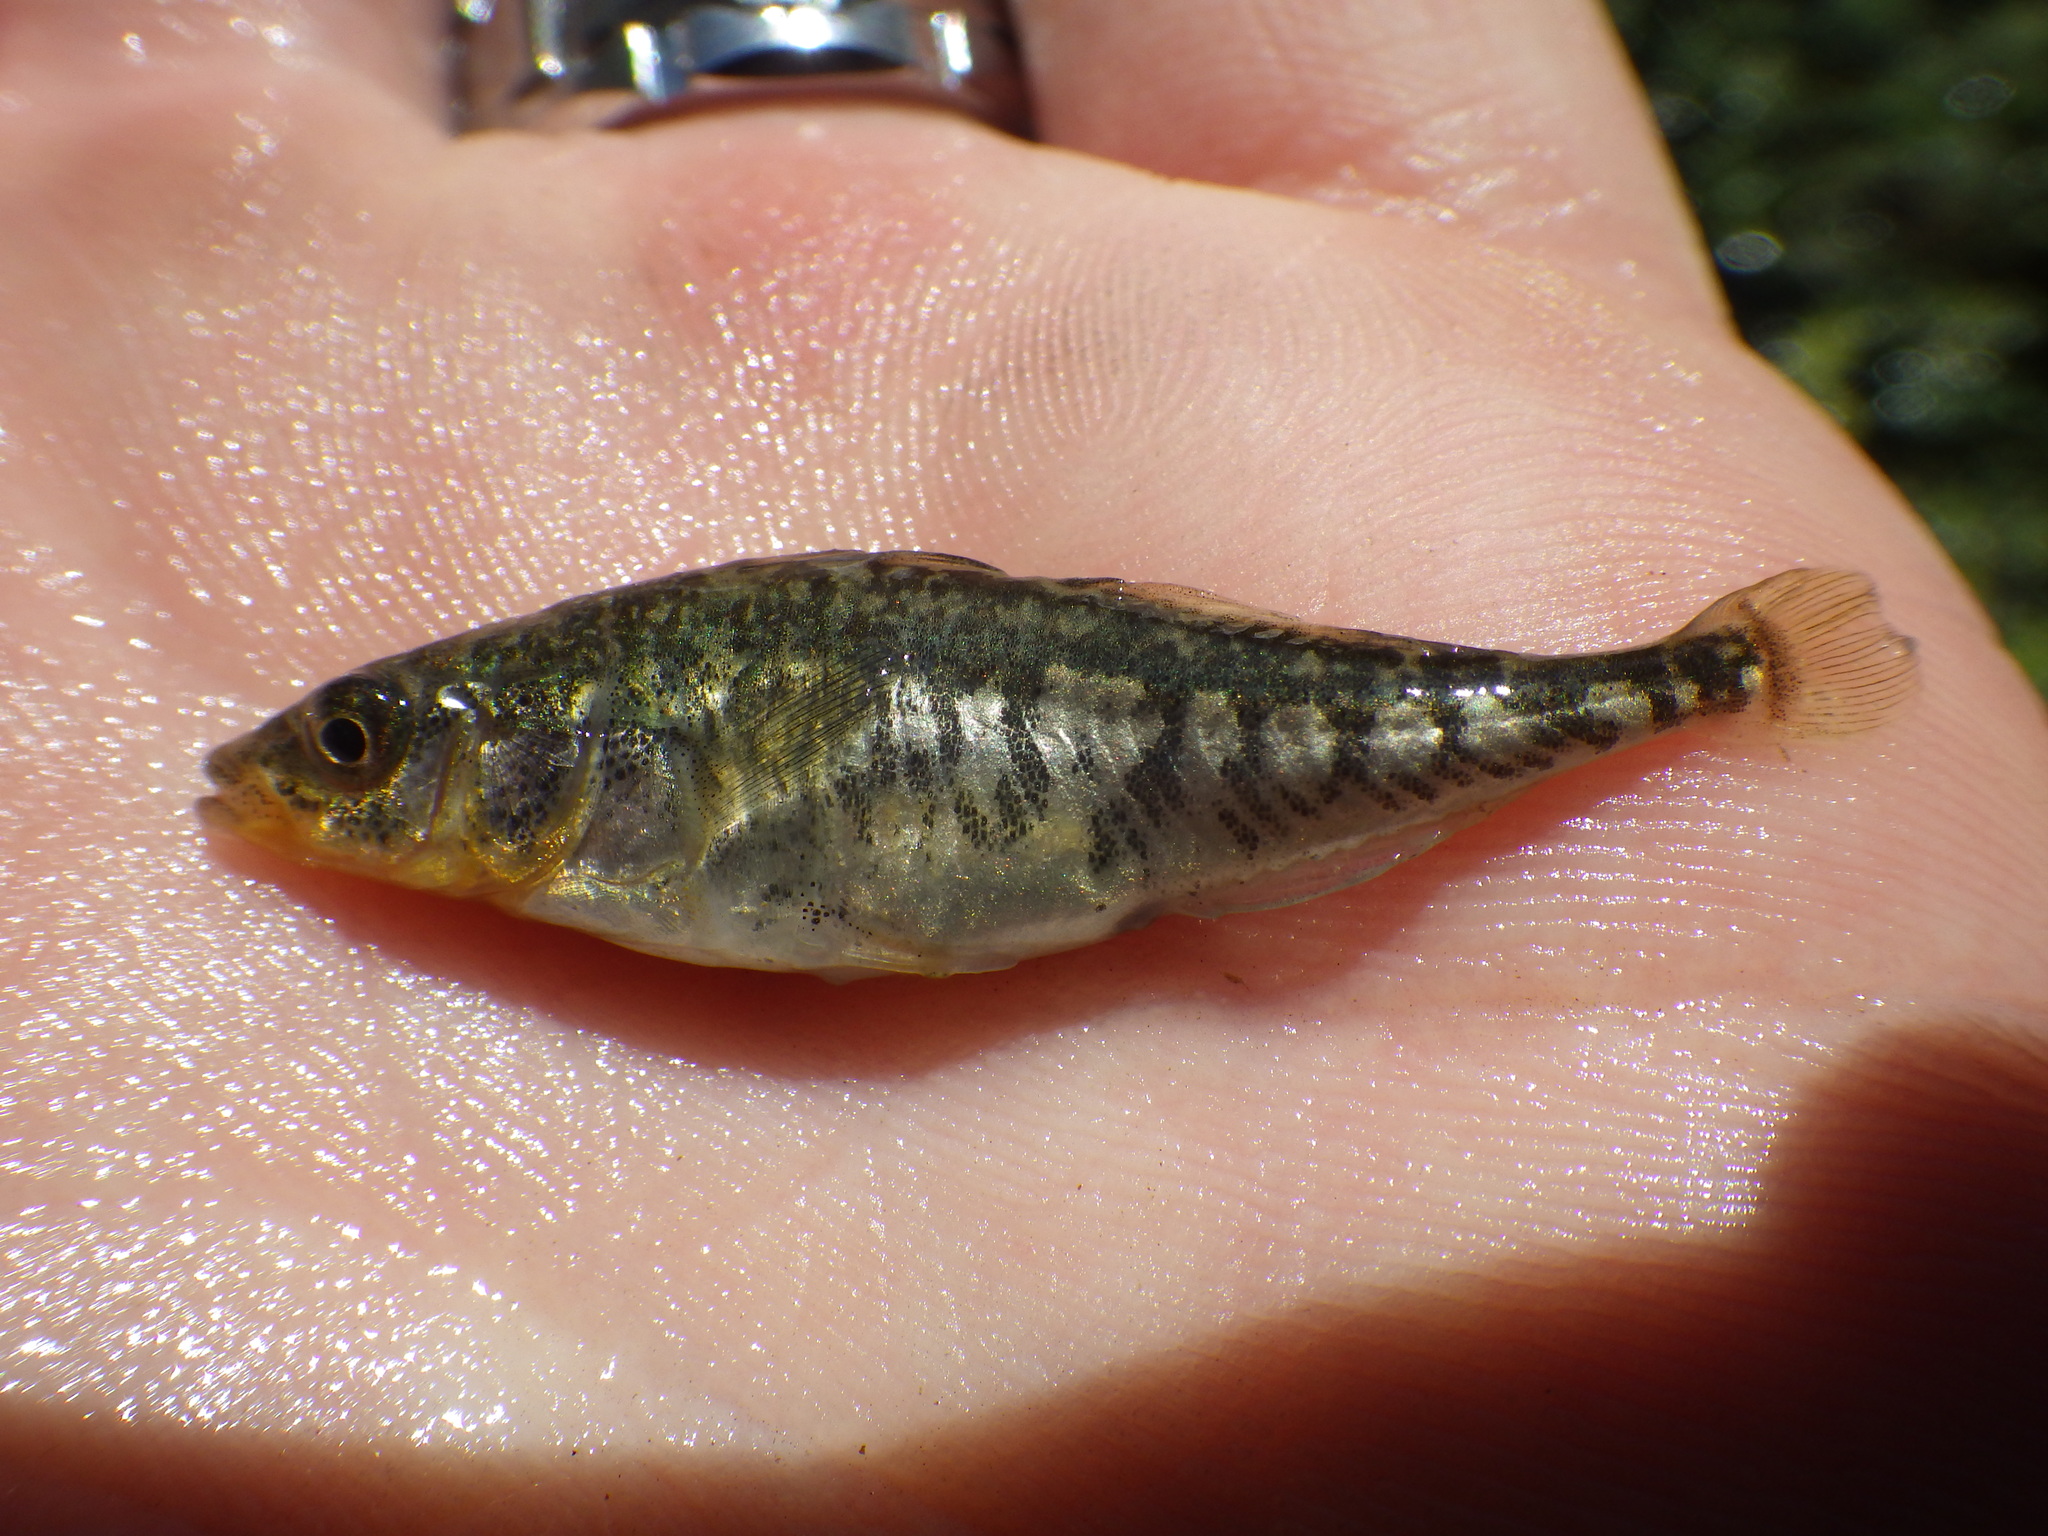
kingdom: Animalia
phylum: Chordata
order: Gasterosteiformes
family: Gasterosteidae
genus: Gasterosteus
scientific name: Gasterosteus aculeatus
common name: Three-spined stickleback
